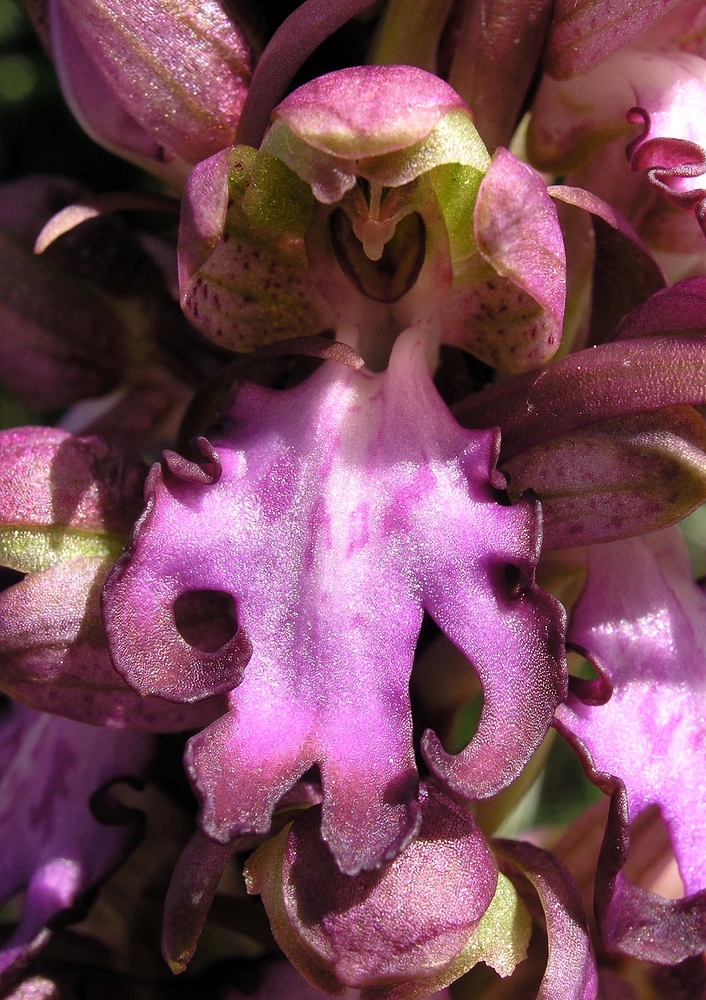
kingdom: Plantae
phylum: Tracheophyta
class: Liliopsida
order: Asparagales
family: Orchidaceae
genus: Himantoglossum
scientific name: Himantoglossum robertianum
